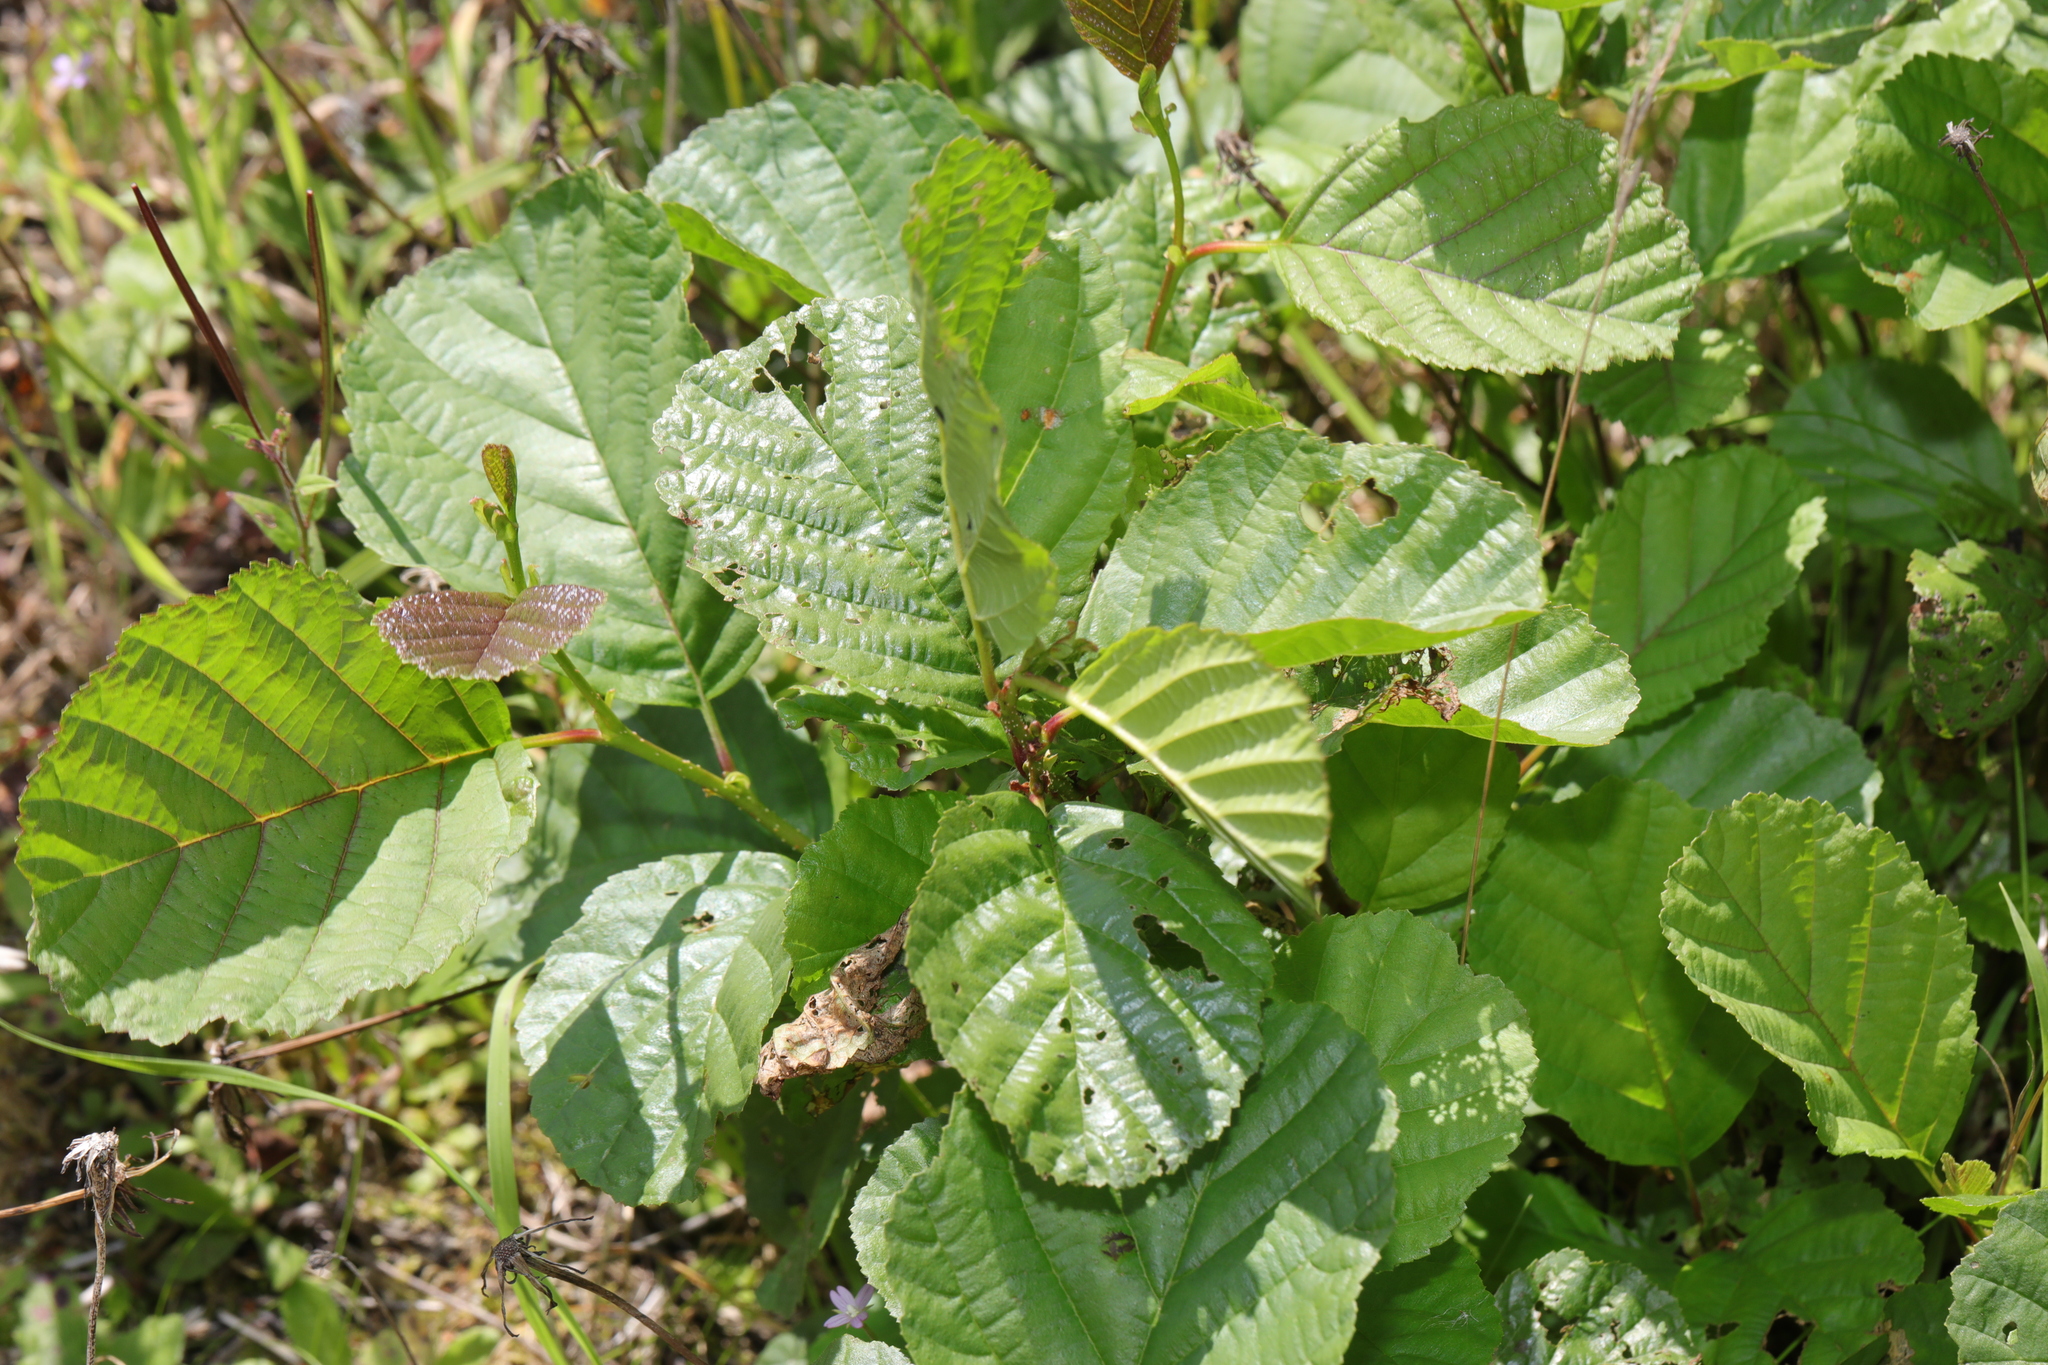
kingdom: Plantae
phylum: Tracheophyta
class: Magnoliopsida
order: Fagales
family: Betulaceae
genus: Alnus
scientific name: Alnus glutinosa
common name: Black alder
